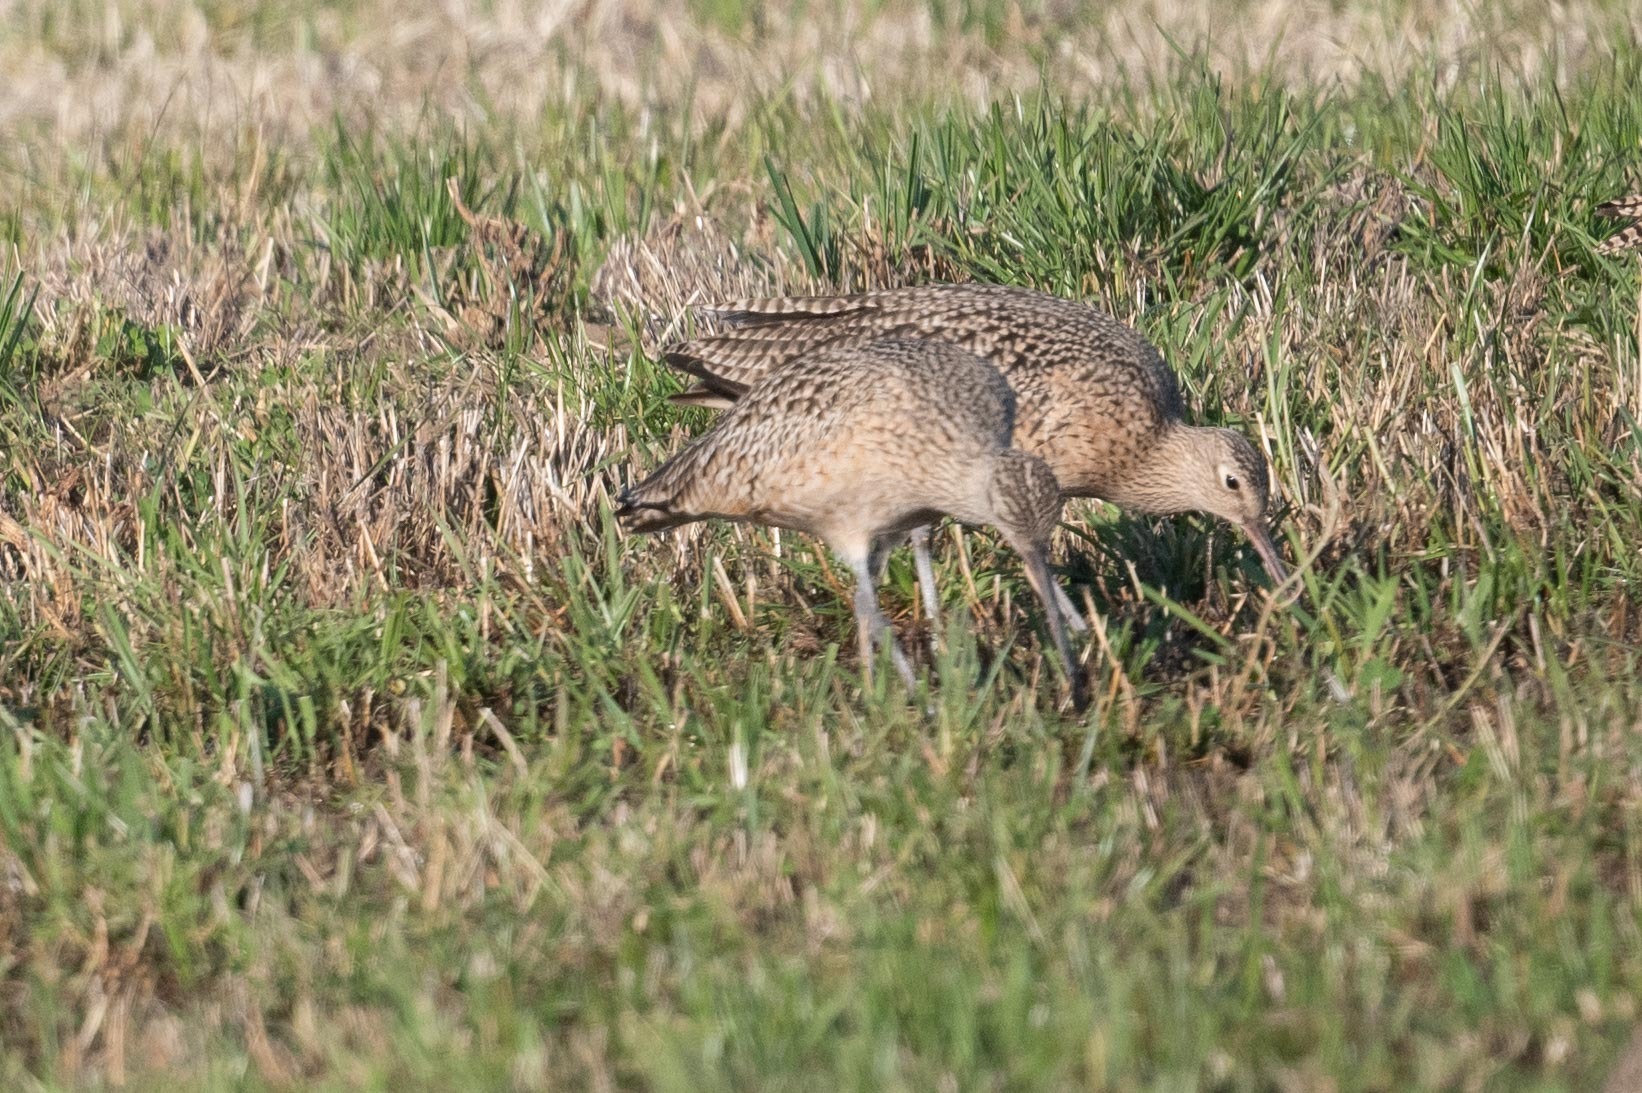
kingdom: Animalia
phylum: Chordata
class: Aves
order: Charadriiformes
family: Scolopacidae
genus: Numenius
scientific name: Numenius americanus
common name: Long-billed curlew
